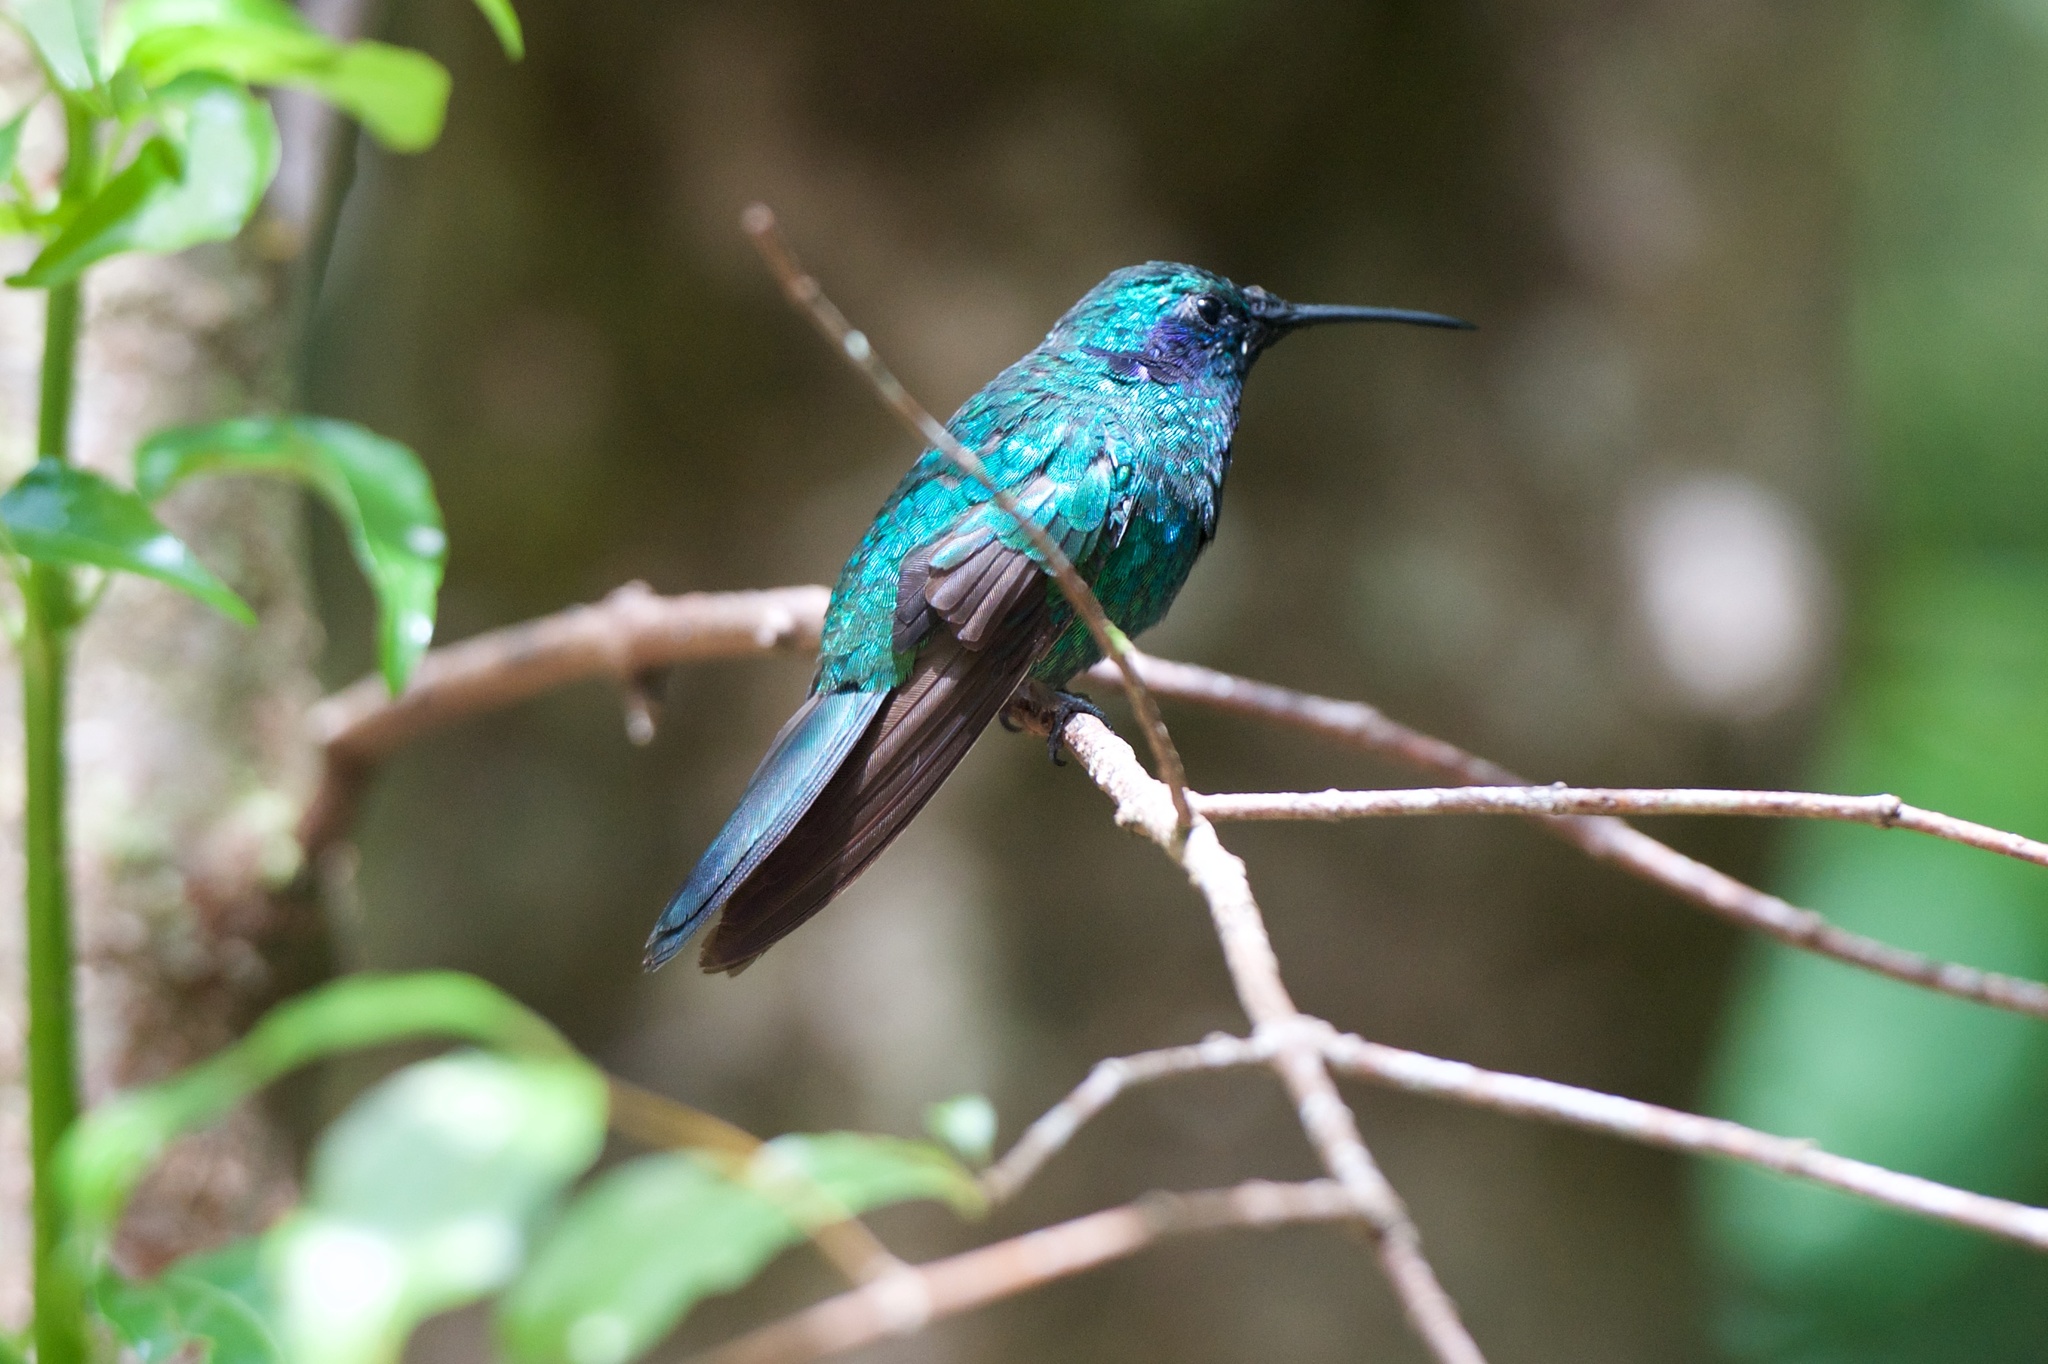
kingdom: Animalia
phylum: Chordata
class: Aves
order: Apodiformes
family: Trochilidae
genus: Colibri
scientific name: Colibri cyanotus
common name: Lesser violetear
